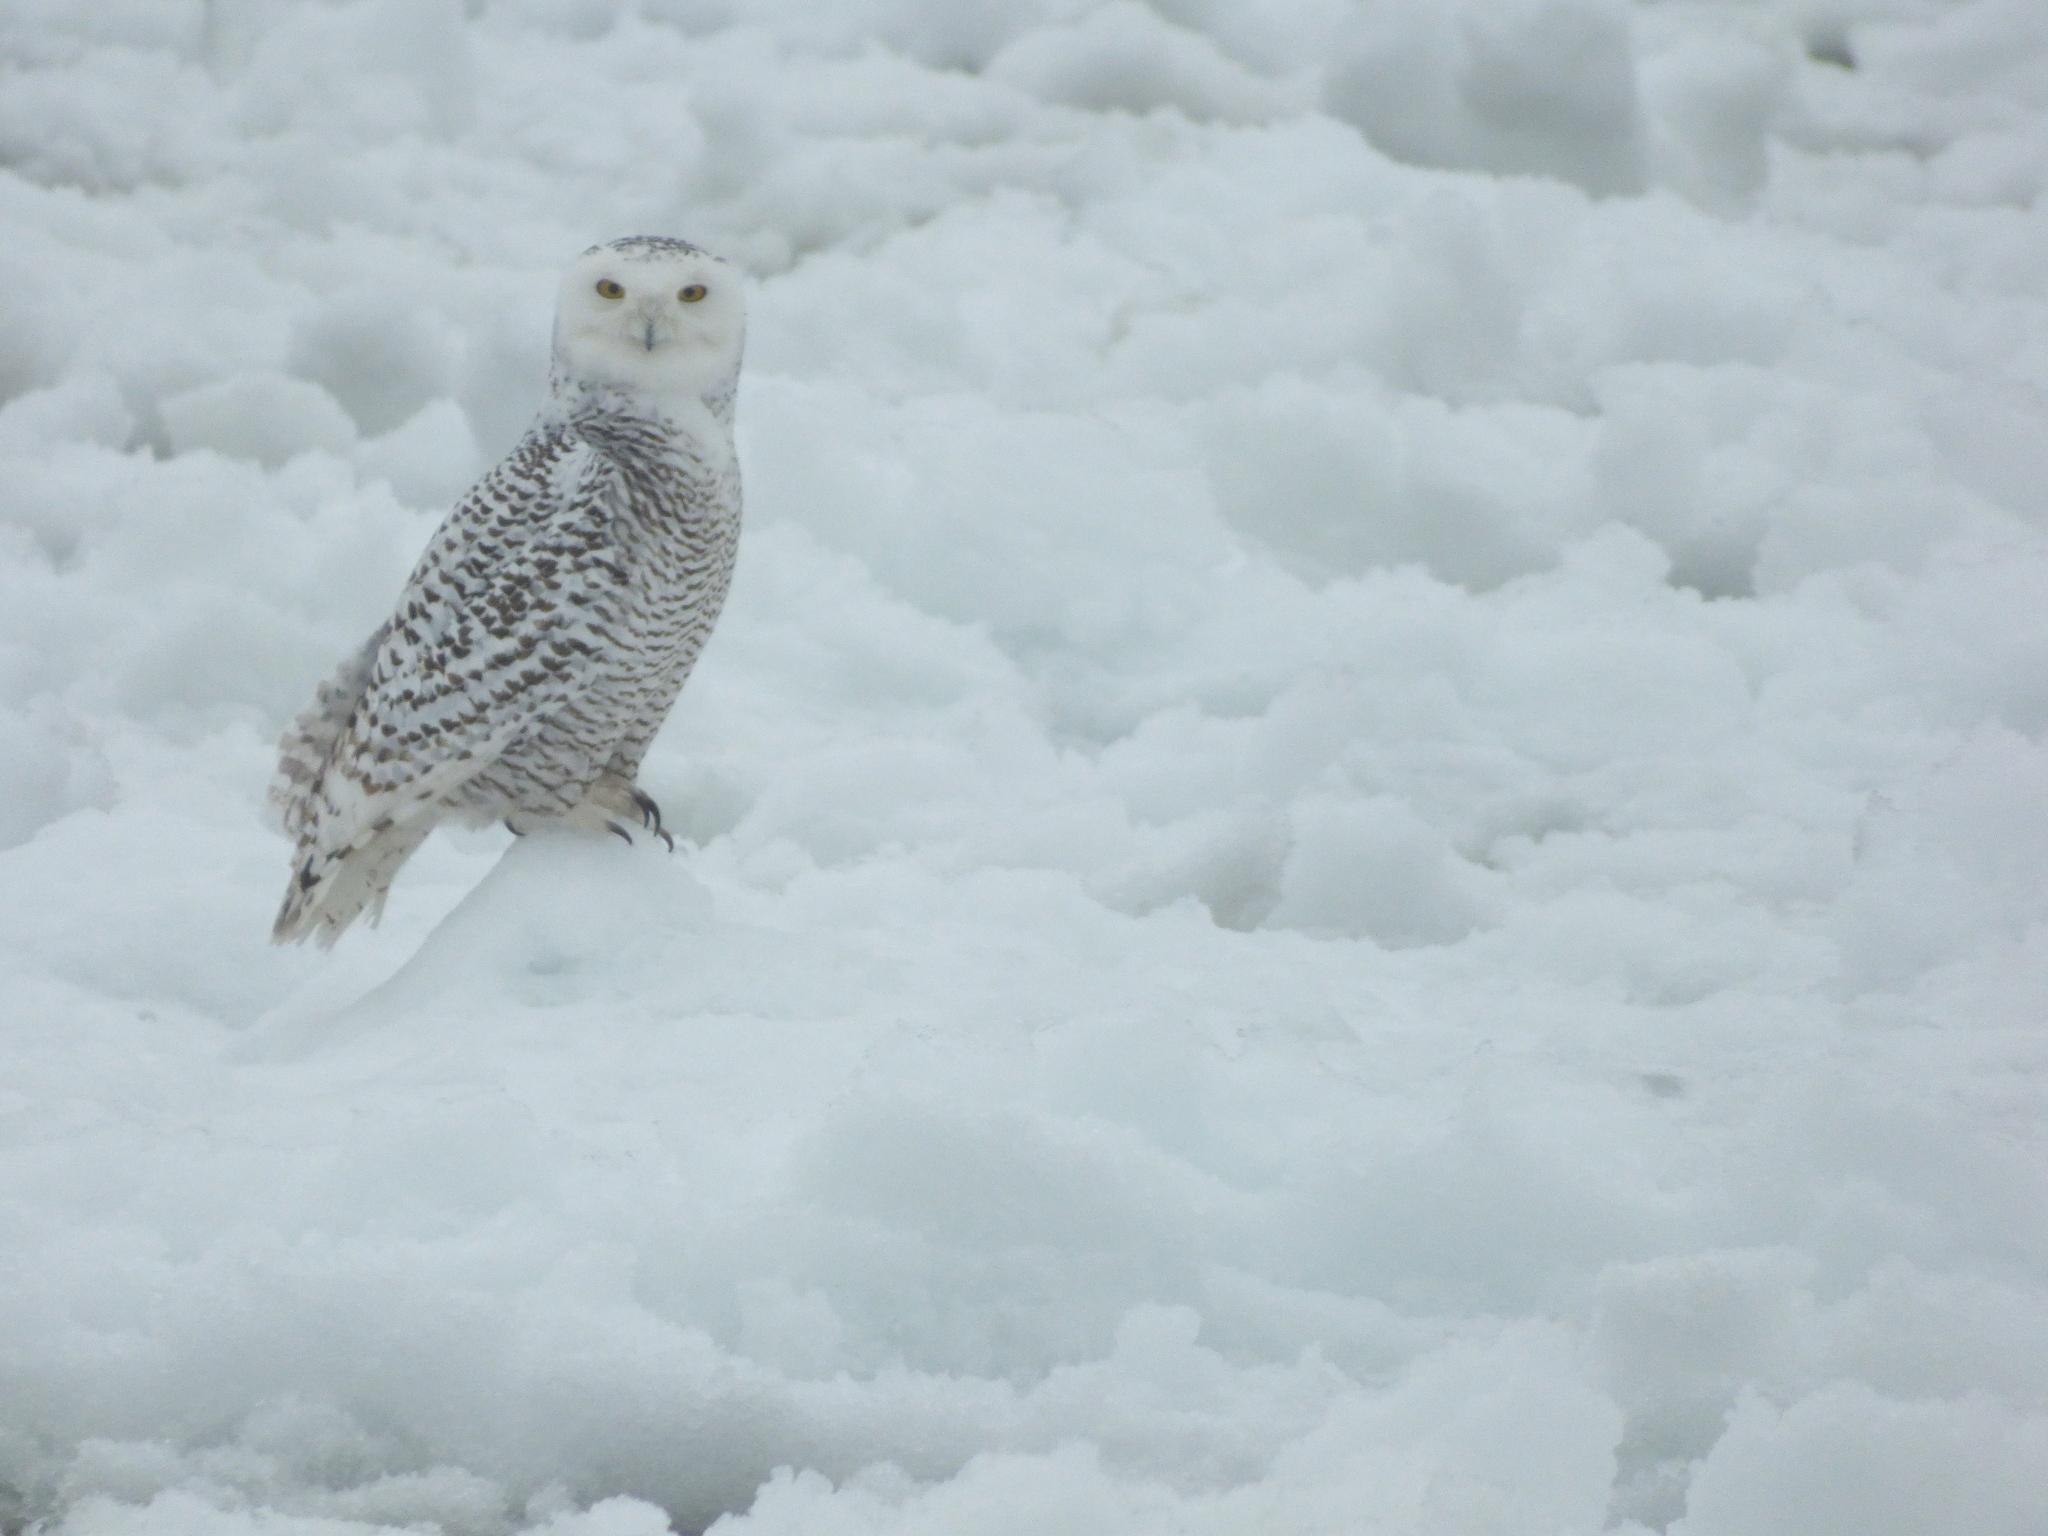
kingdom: Animalia
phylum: Chordata
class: Aves
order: Strigiformes
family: Strigidae
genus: Bubo
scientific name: Bubo scandiacus
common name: Snowy owl
